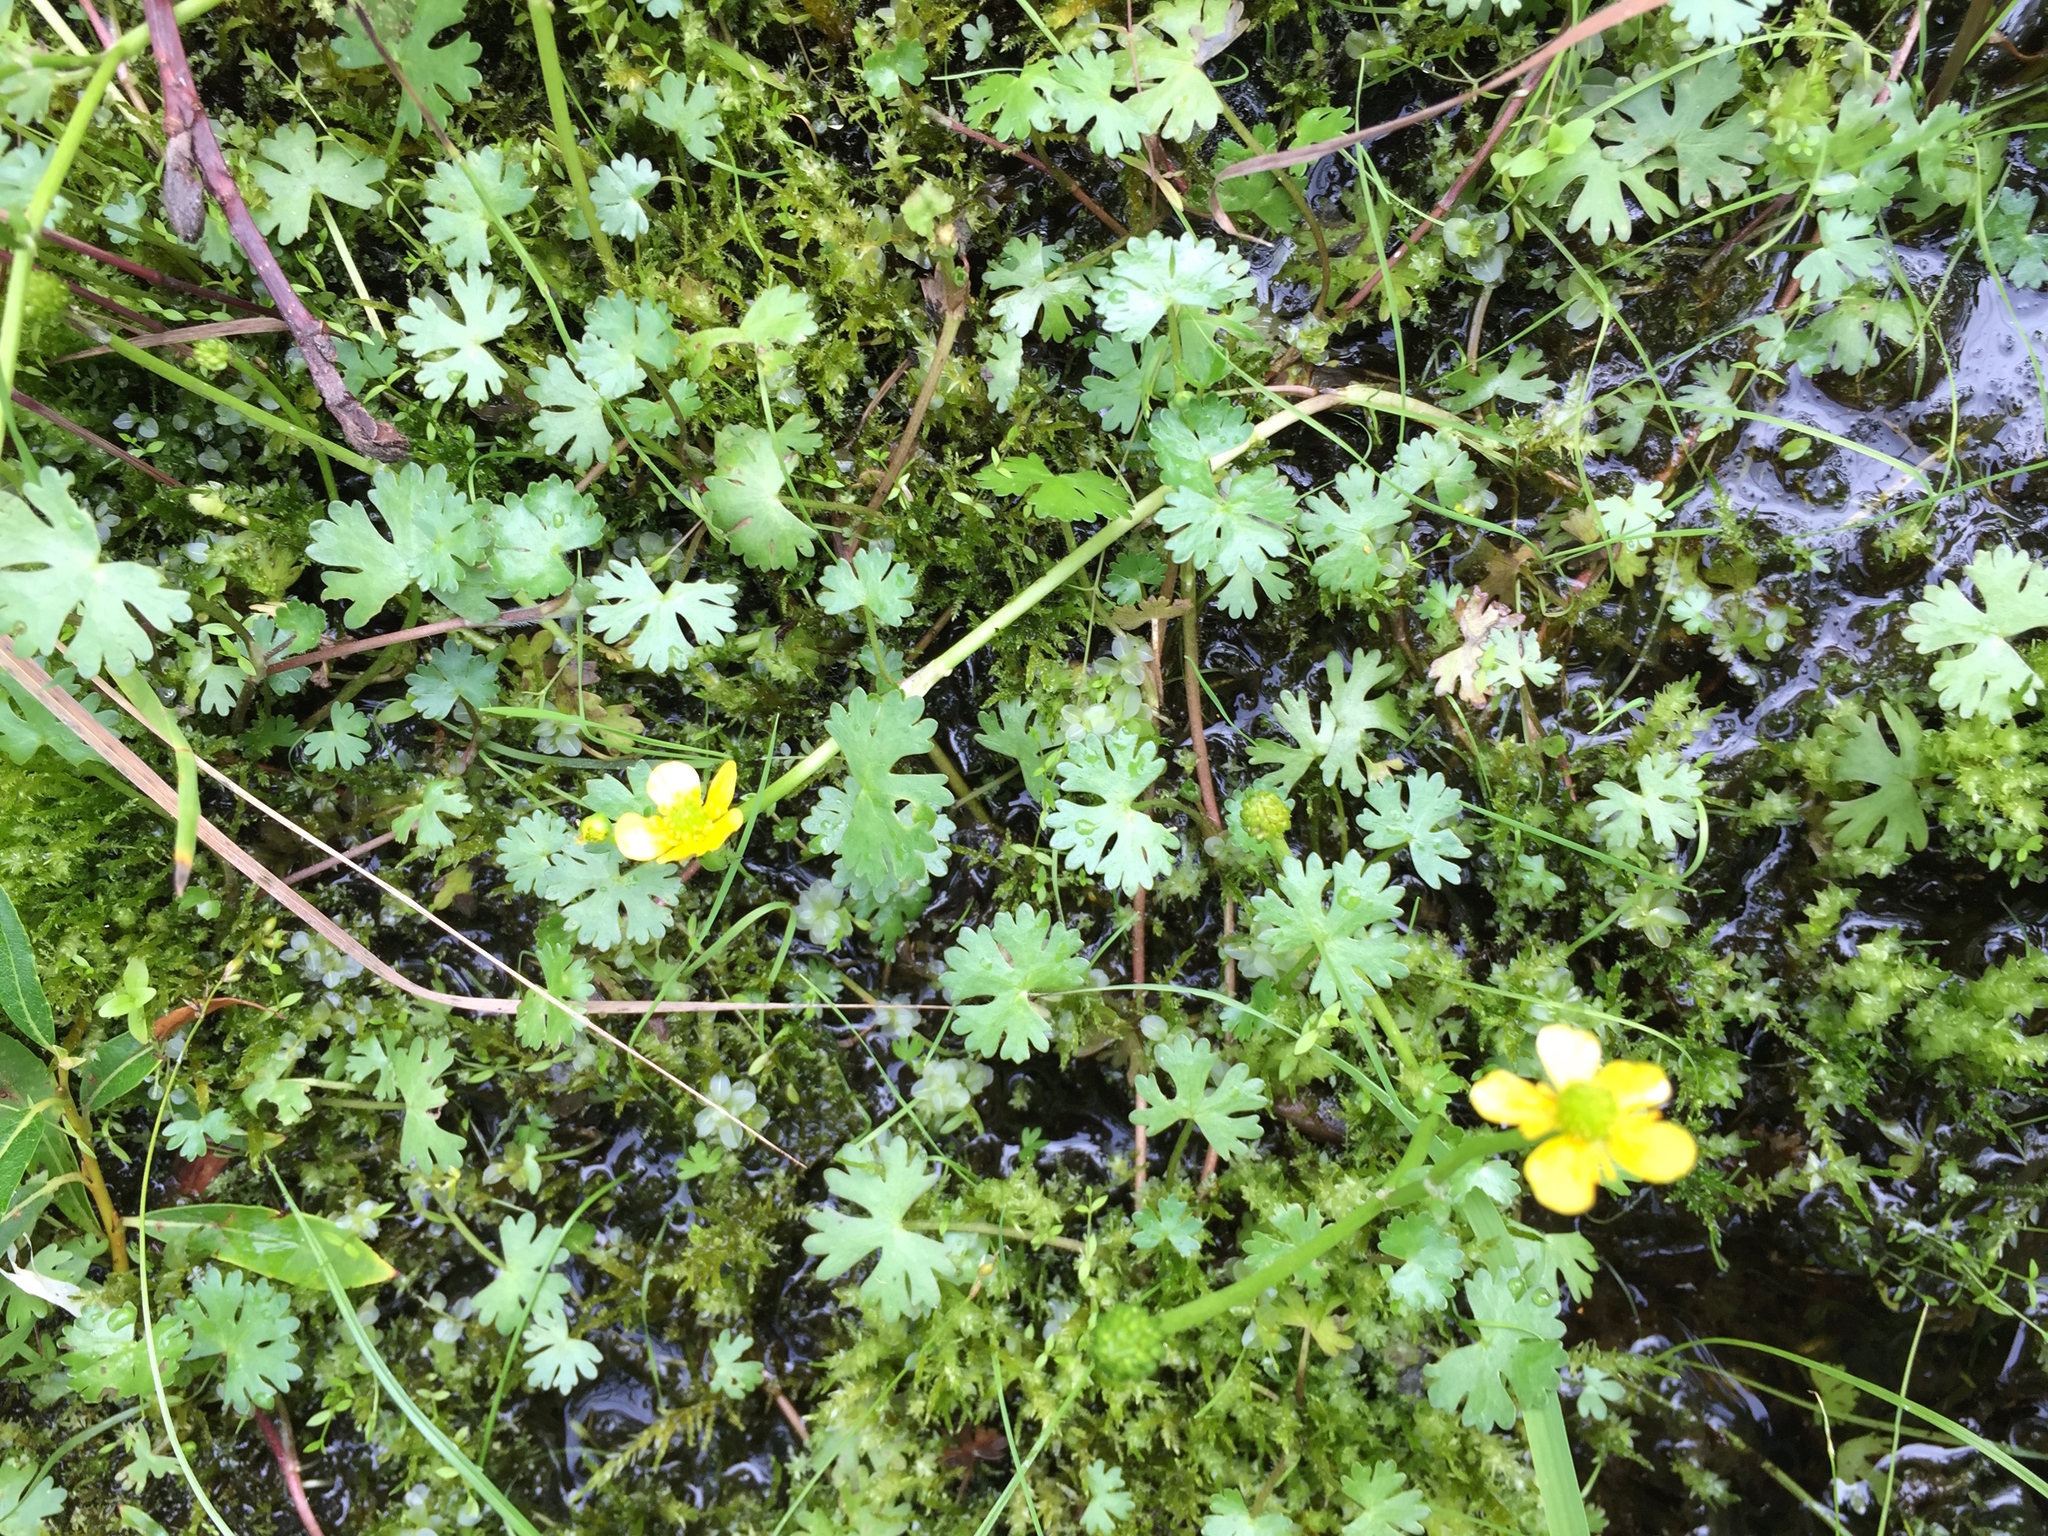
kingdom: Plantae
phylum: Tracheophyta
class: Magnoliopsida
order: Ranunculales
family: Ranunculaceae
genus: Ranunculus
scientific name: Ranunculus gmelinii
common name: Gmelin's buttercup
